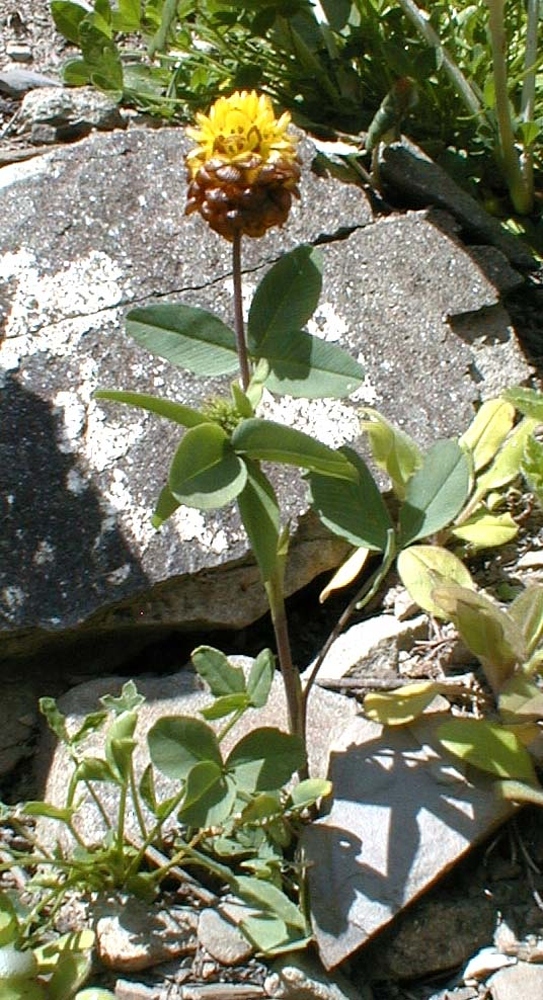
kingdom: Plantae
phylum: Tracheophyta
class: Magnoliopsida
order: Fabales
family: Fabaceae
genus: Trifolium
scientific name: Trifolium badium
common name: Brown clover
